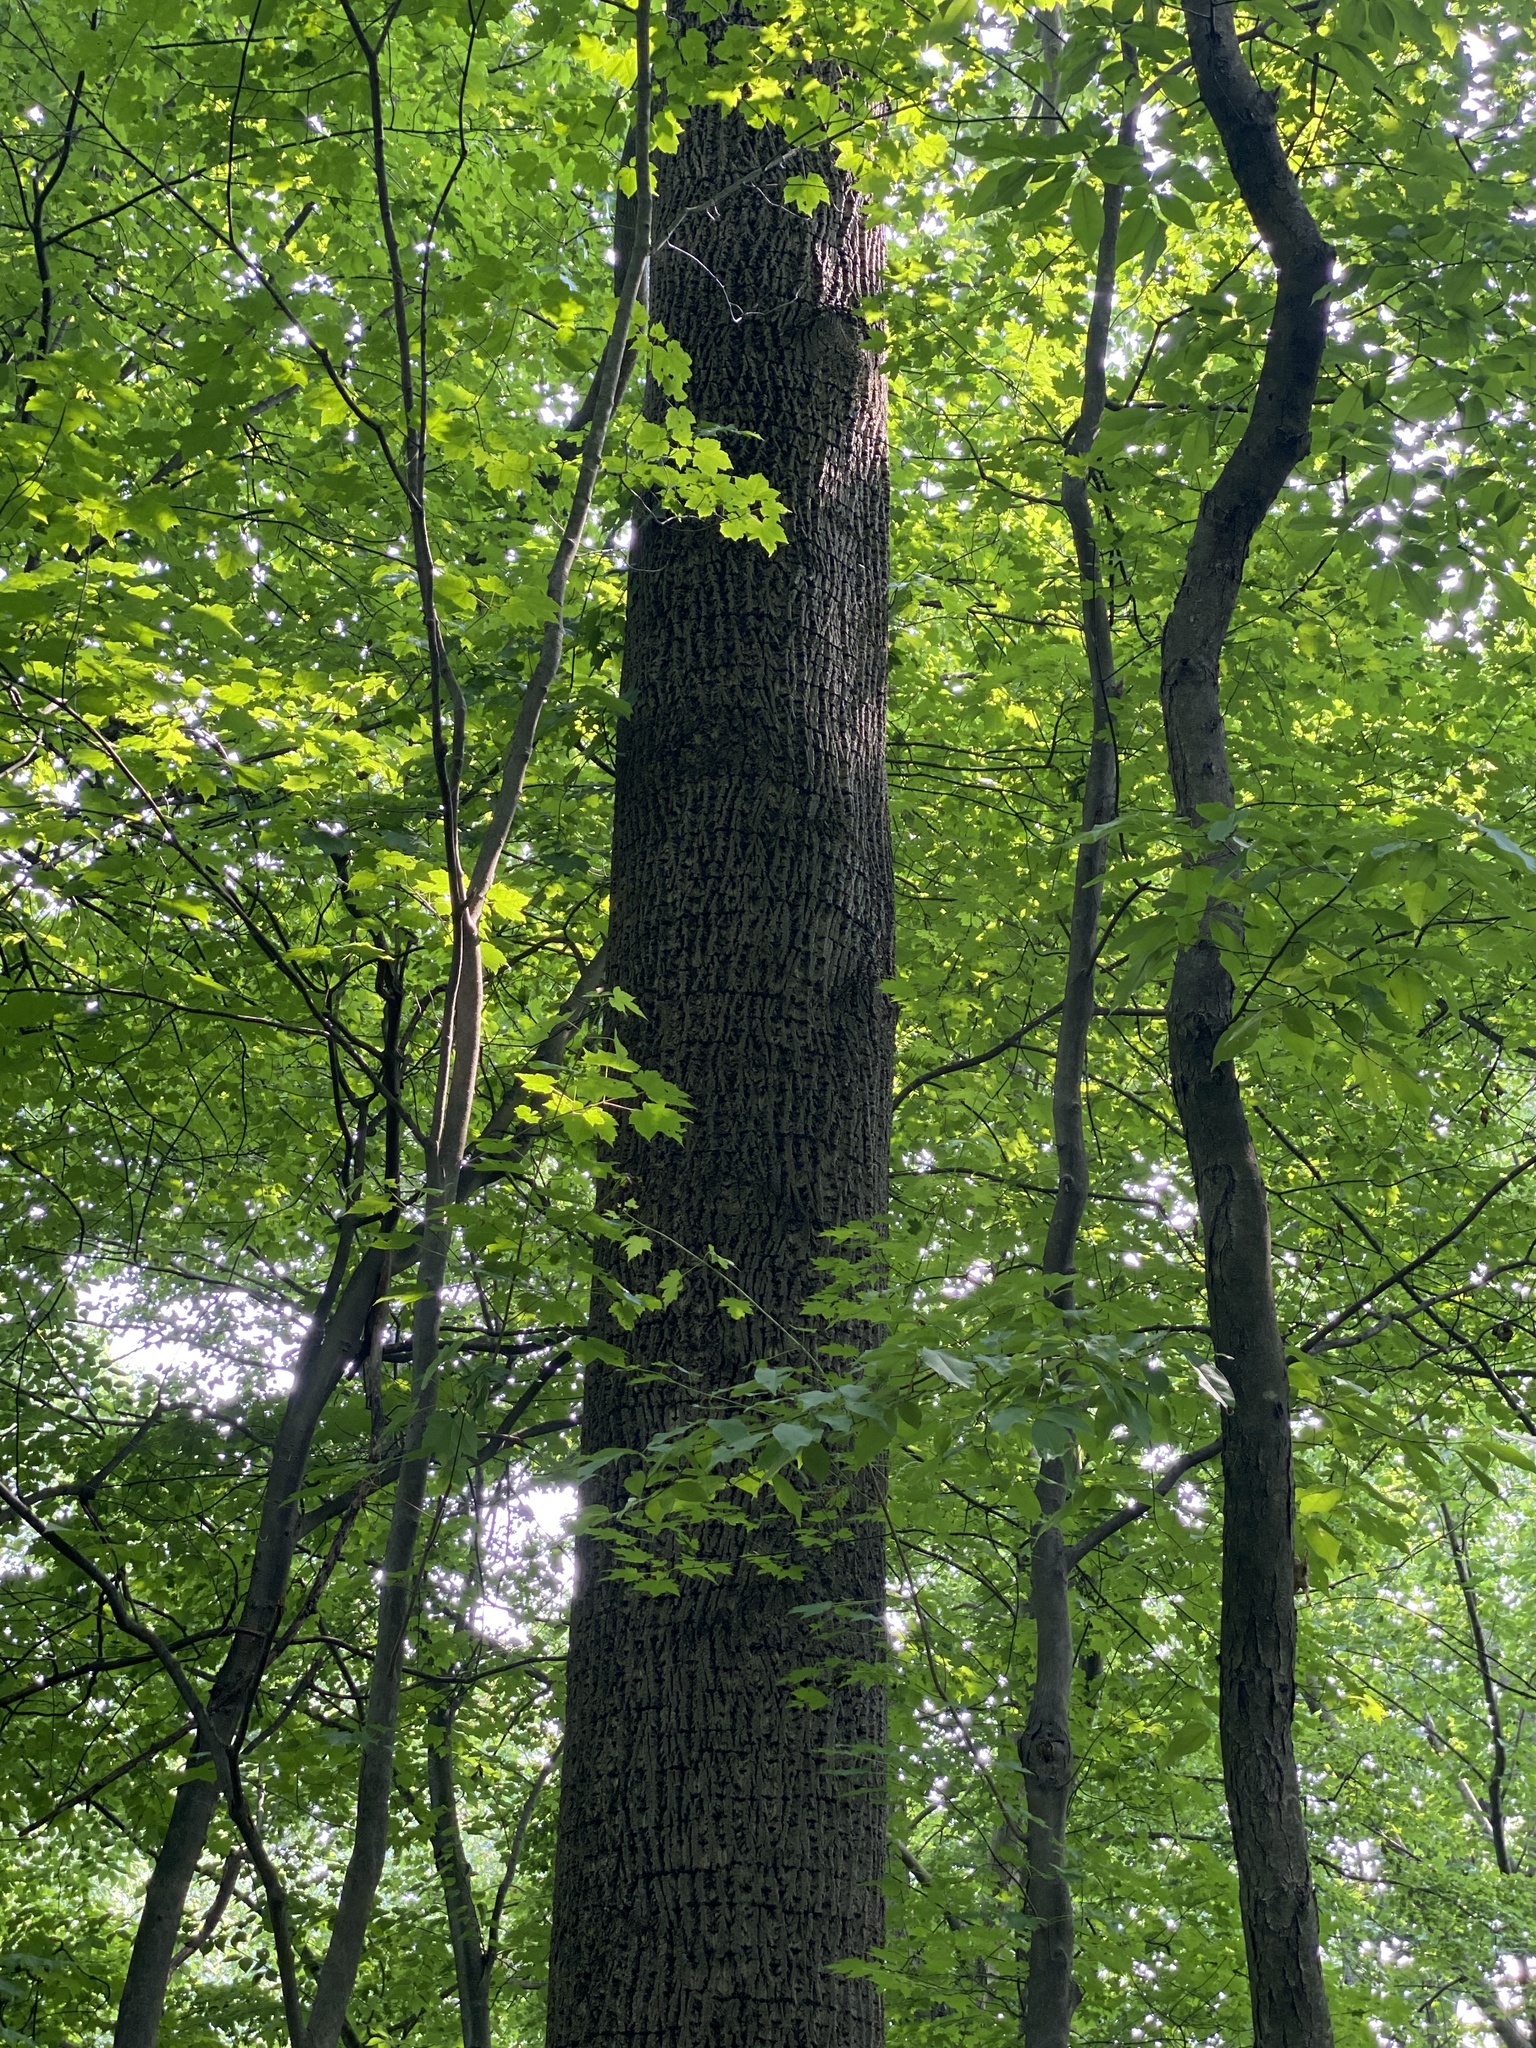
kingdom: Plantae
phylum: Tracheophyta
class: Magnoliopsida
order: Magnoliales
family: Magnoliaceae
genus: Liriodendron
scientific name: Liriodendron tulipifera
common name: Tulip tree
